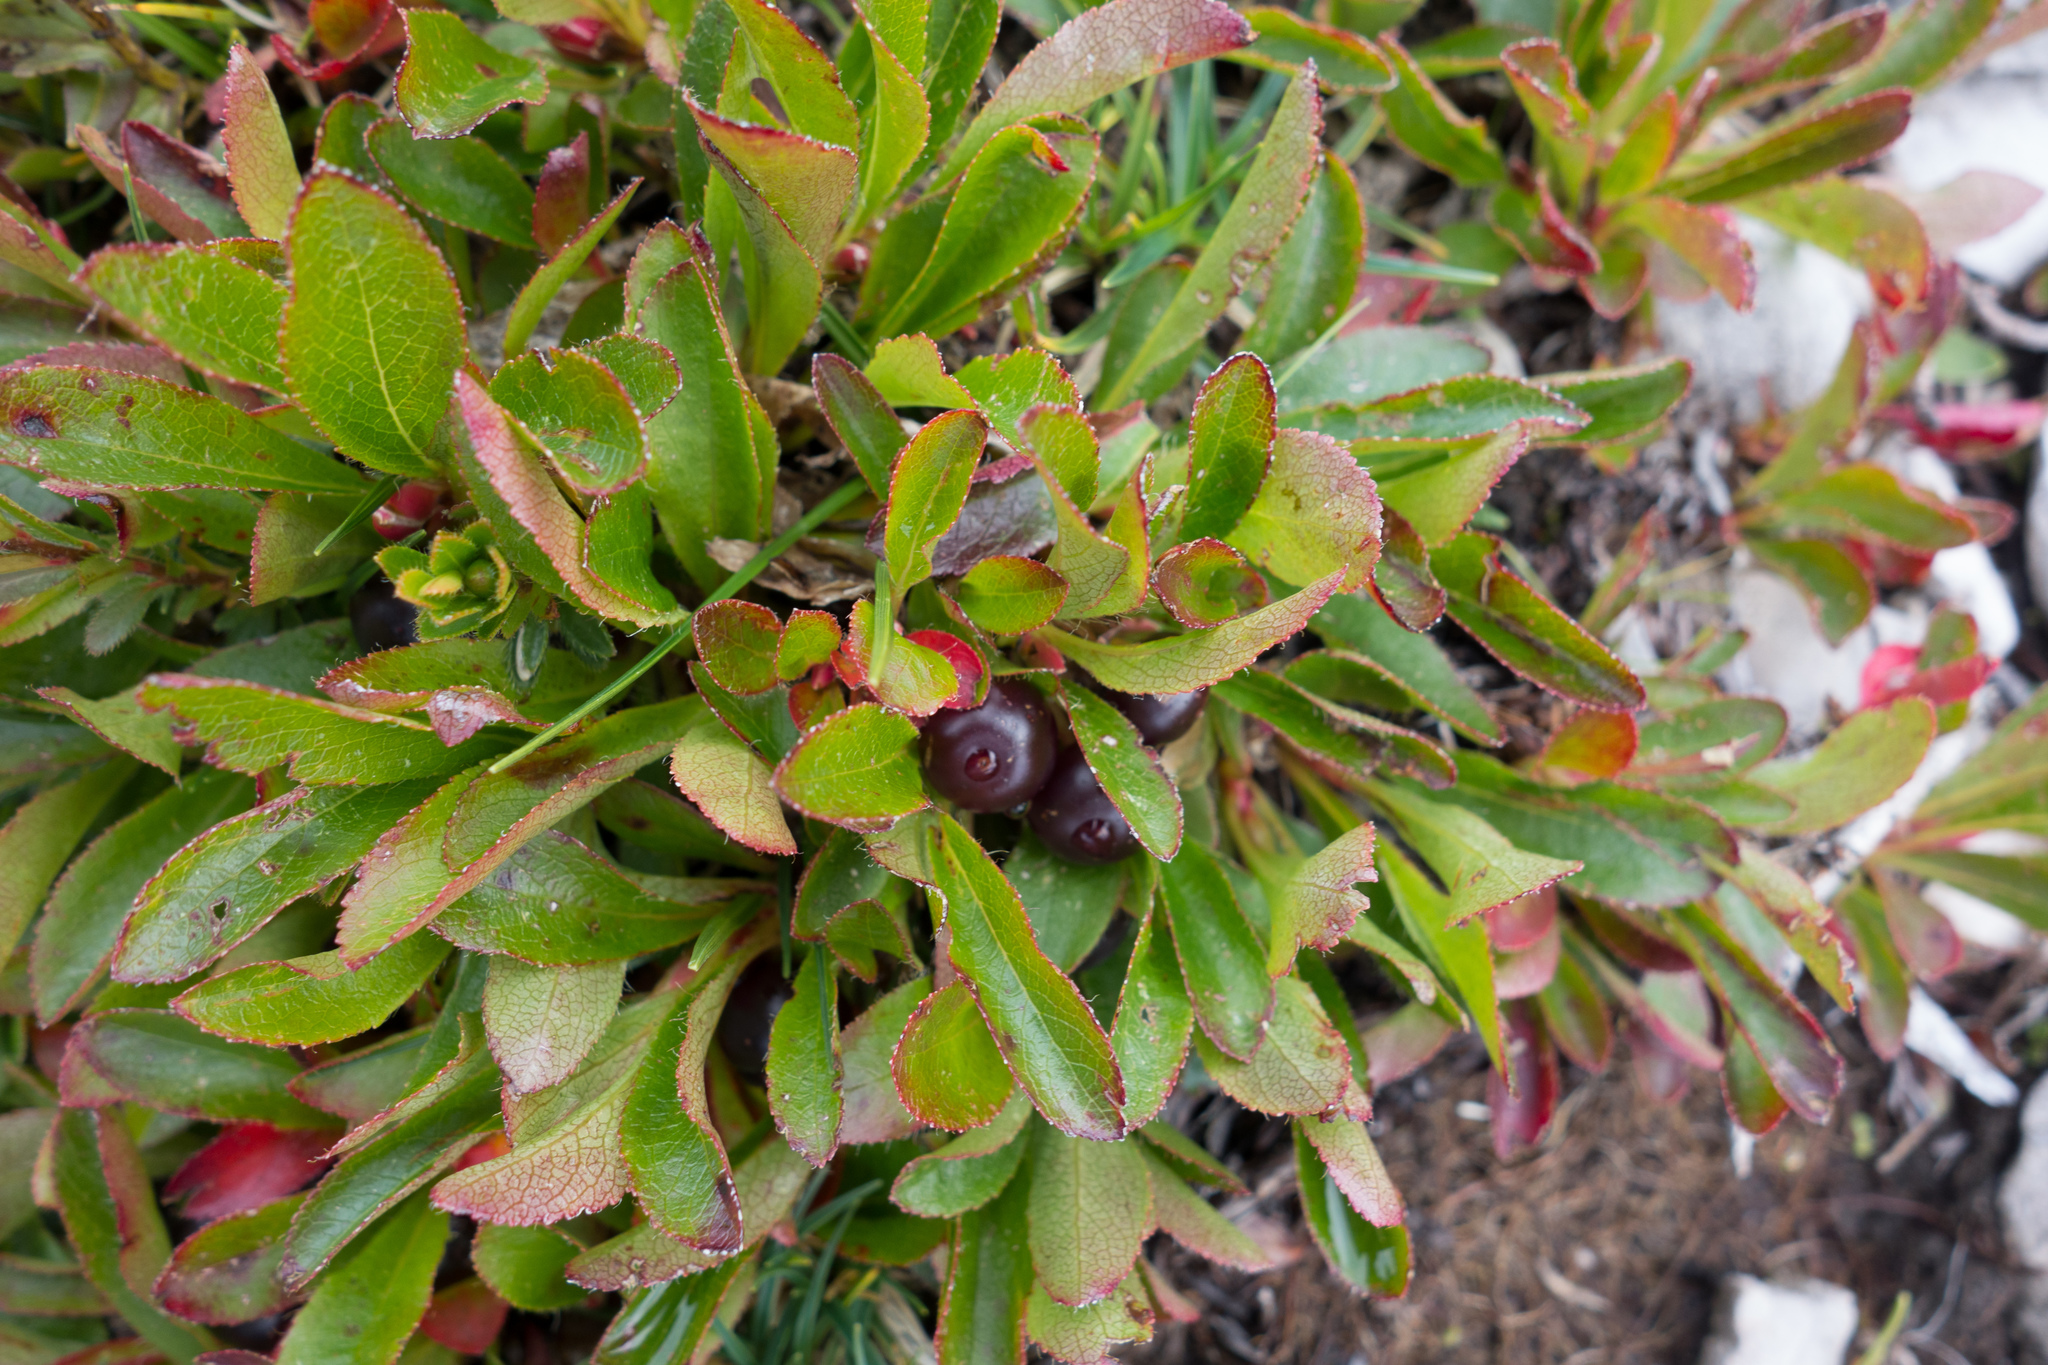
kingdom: Plantae
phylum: Tracheophyta
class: Magnoliopsida
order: Ericales
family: Ericaceae
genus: Arctostaphylos
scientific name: Arctostaphylos alpinus
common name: Alpine bearberry
